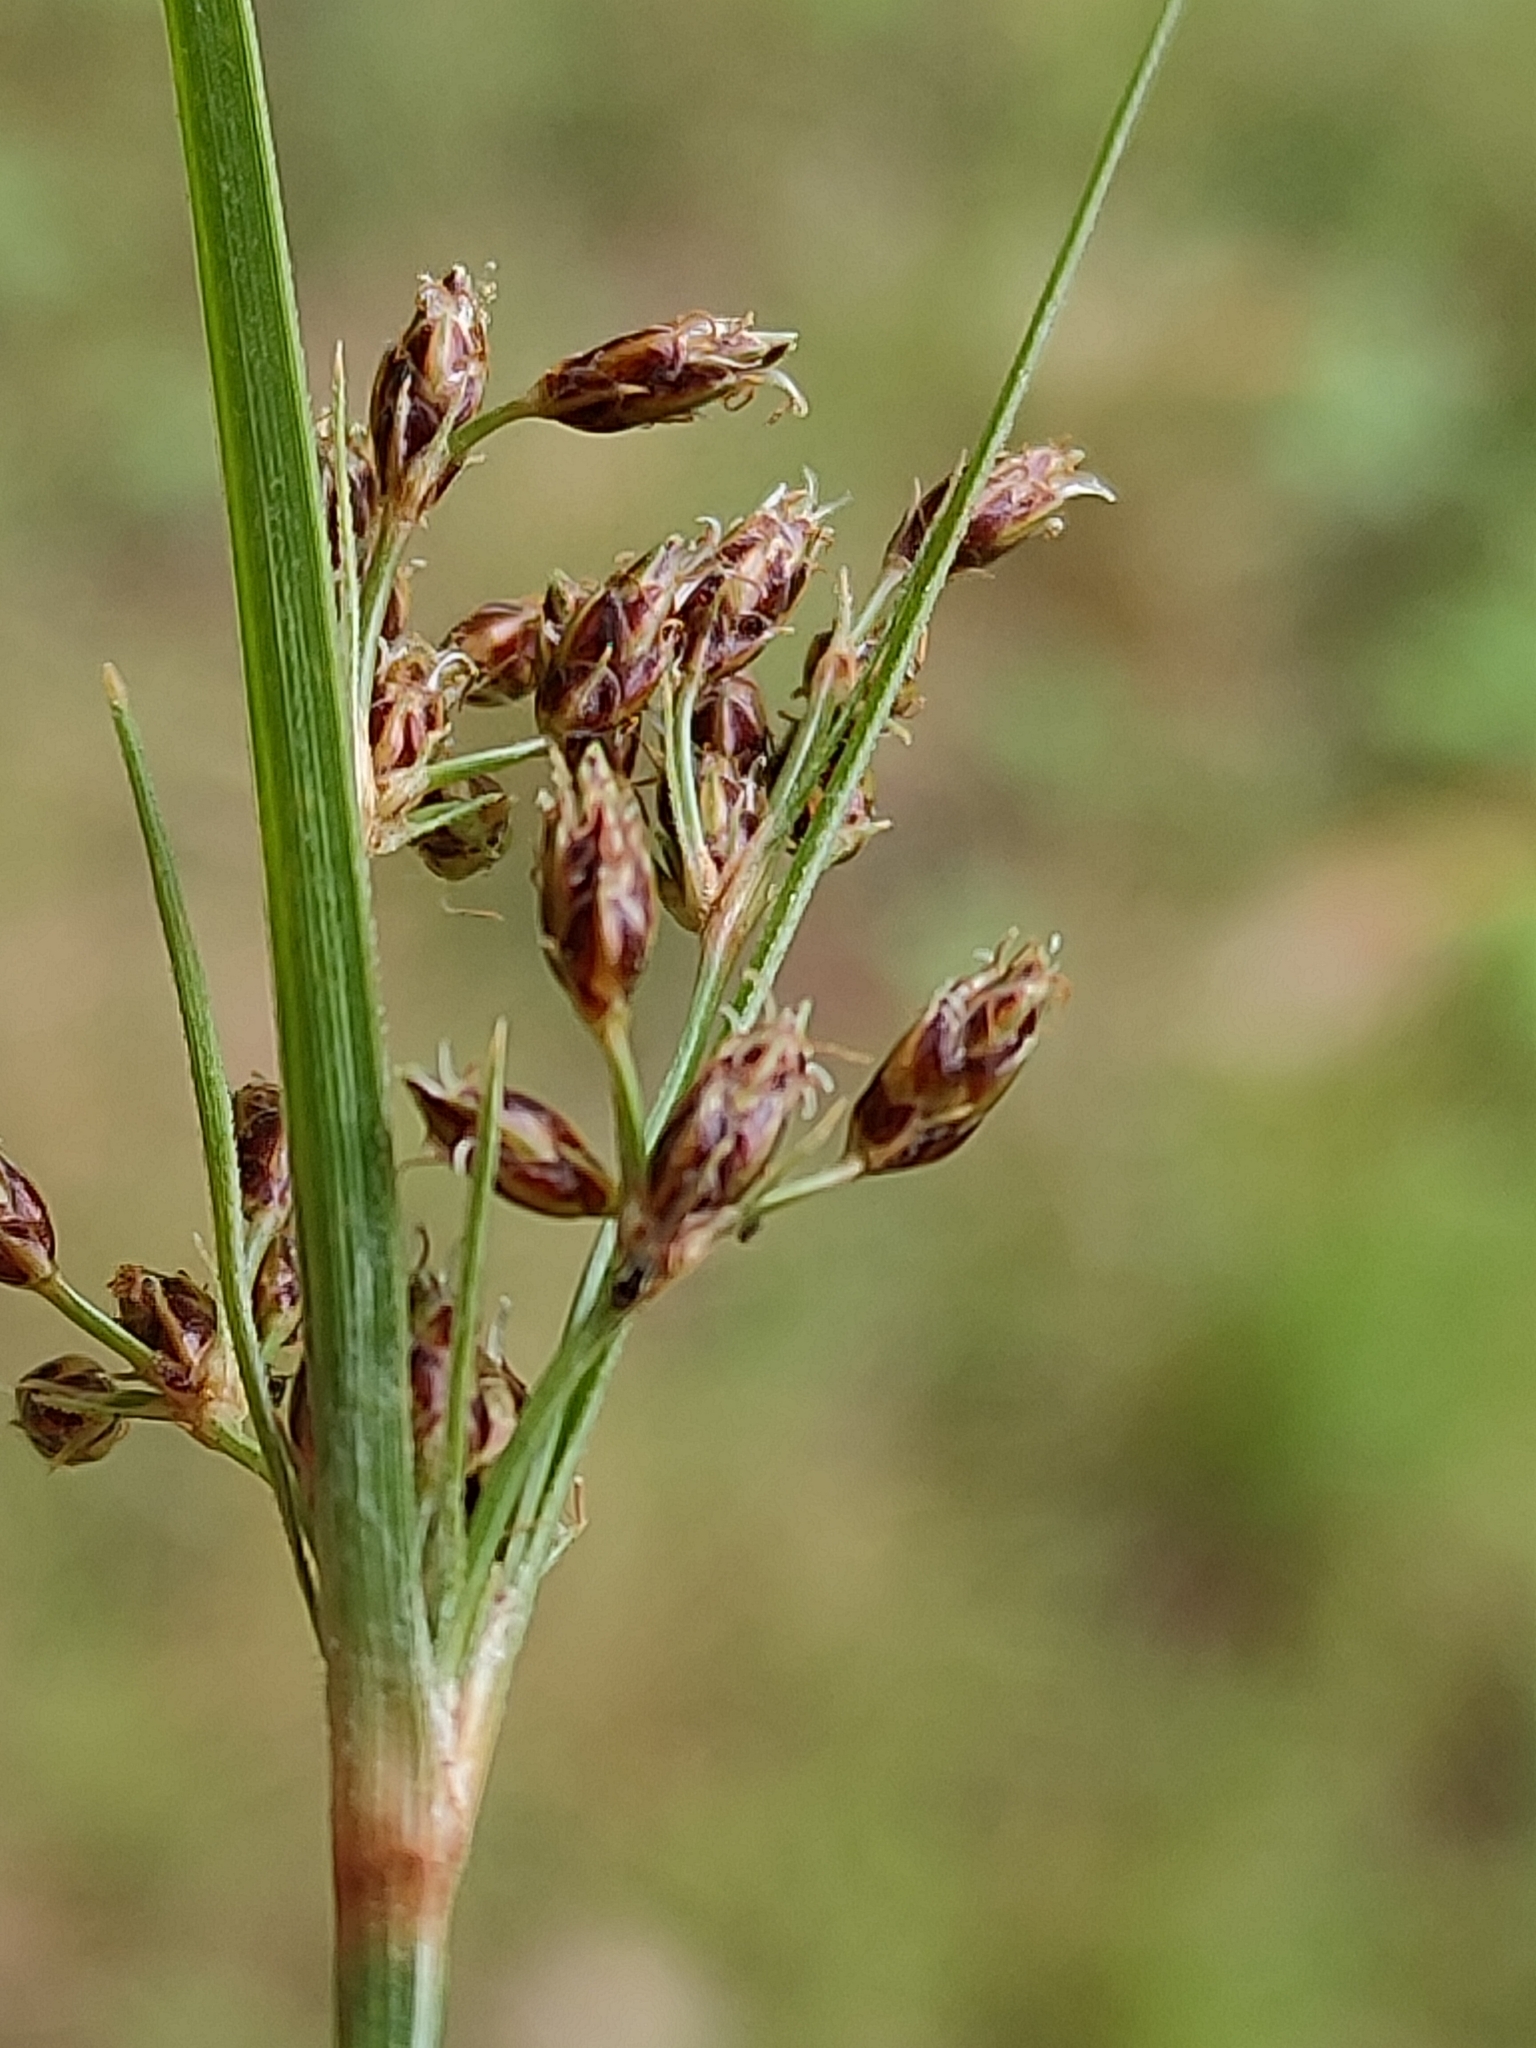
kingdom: Plantae
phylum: Tracheophyta
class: Liliopsida
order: Poales
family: Cyperaceae
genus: Fimbristylis
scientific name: Fimbristylis dichotoma
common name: Forked fimbry
